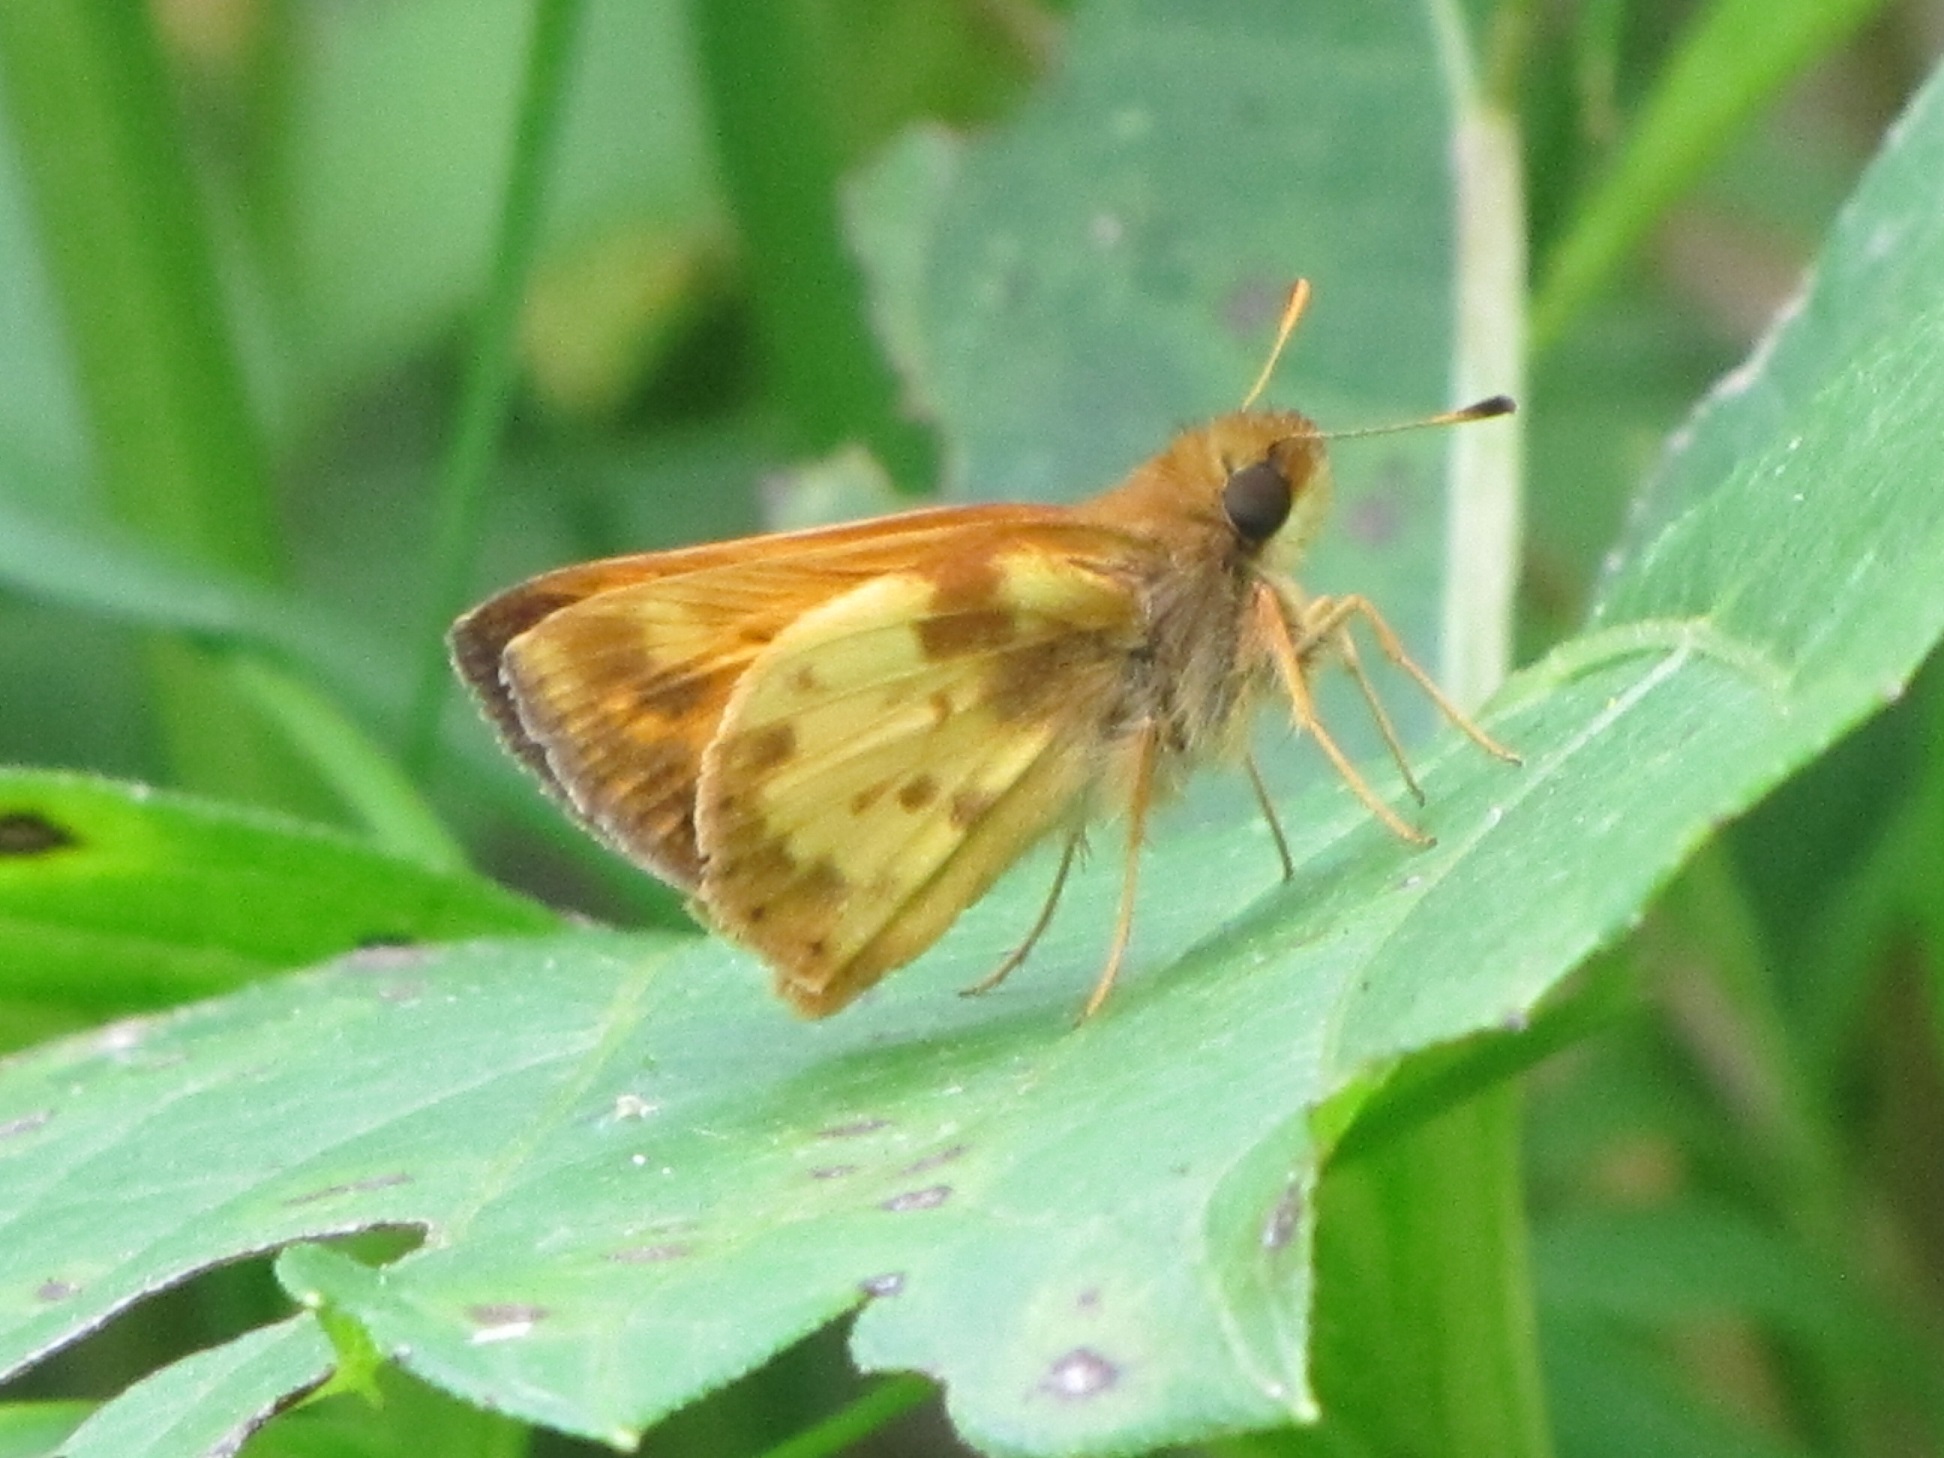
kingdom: Animalia
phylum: Arthropoda
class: Insecta
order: Lepidoptera
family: Hesperiidae
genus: Lon
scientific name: Lon zabulon
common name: Zabulon skipper
